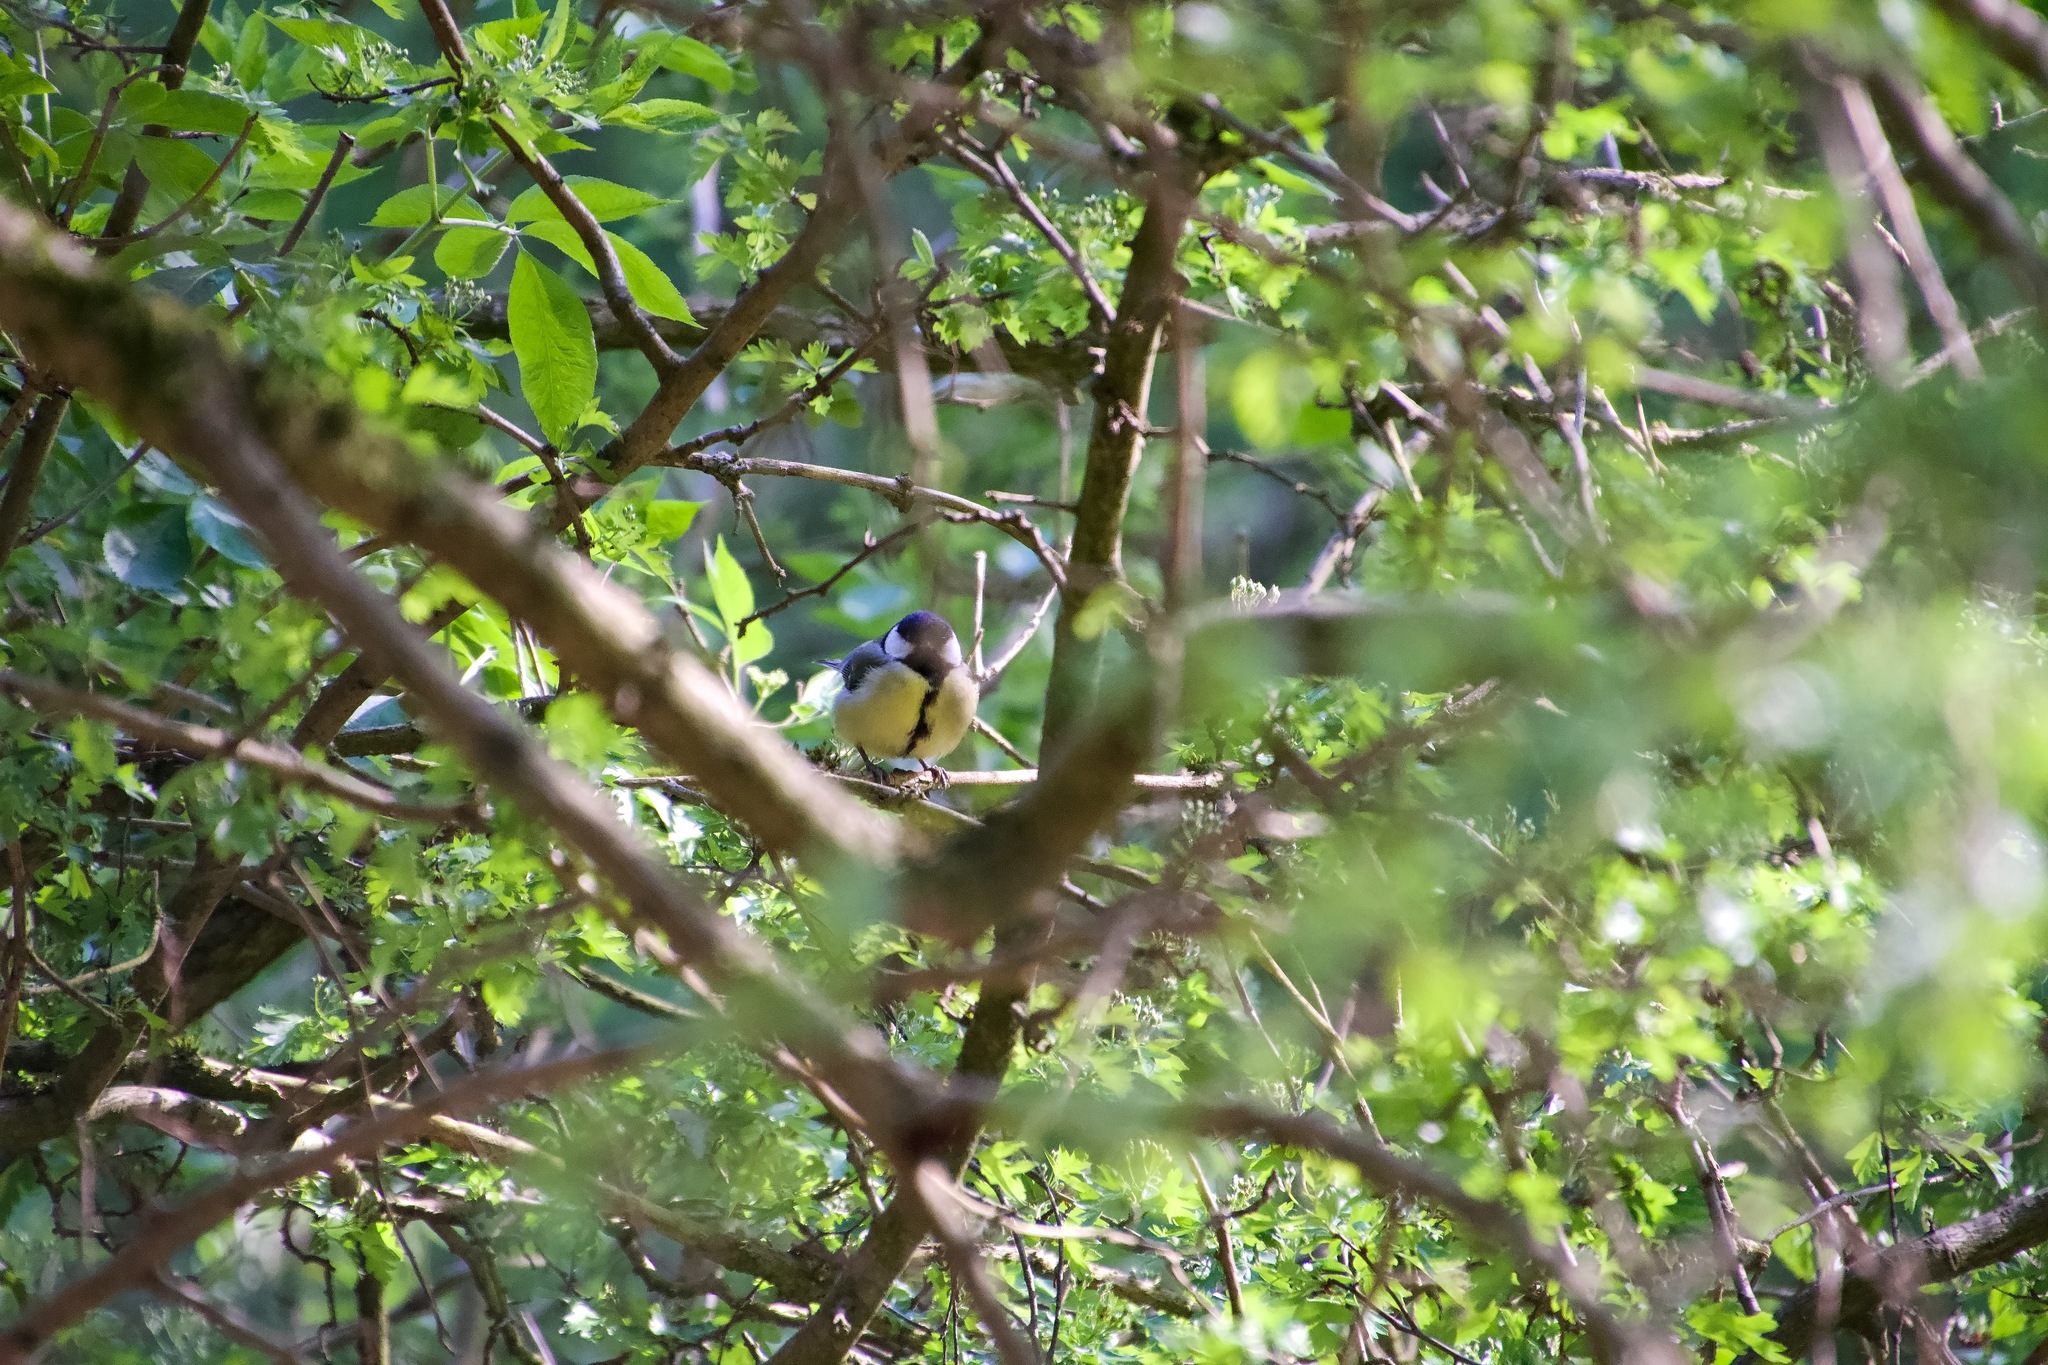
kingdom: Animalia
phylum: Chordata
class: Aves
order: Passeriformes
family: Paridae
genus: Parus
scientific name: Parus major
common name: Great tit
